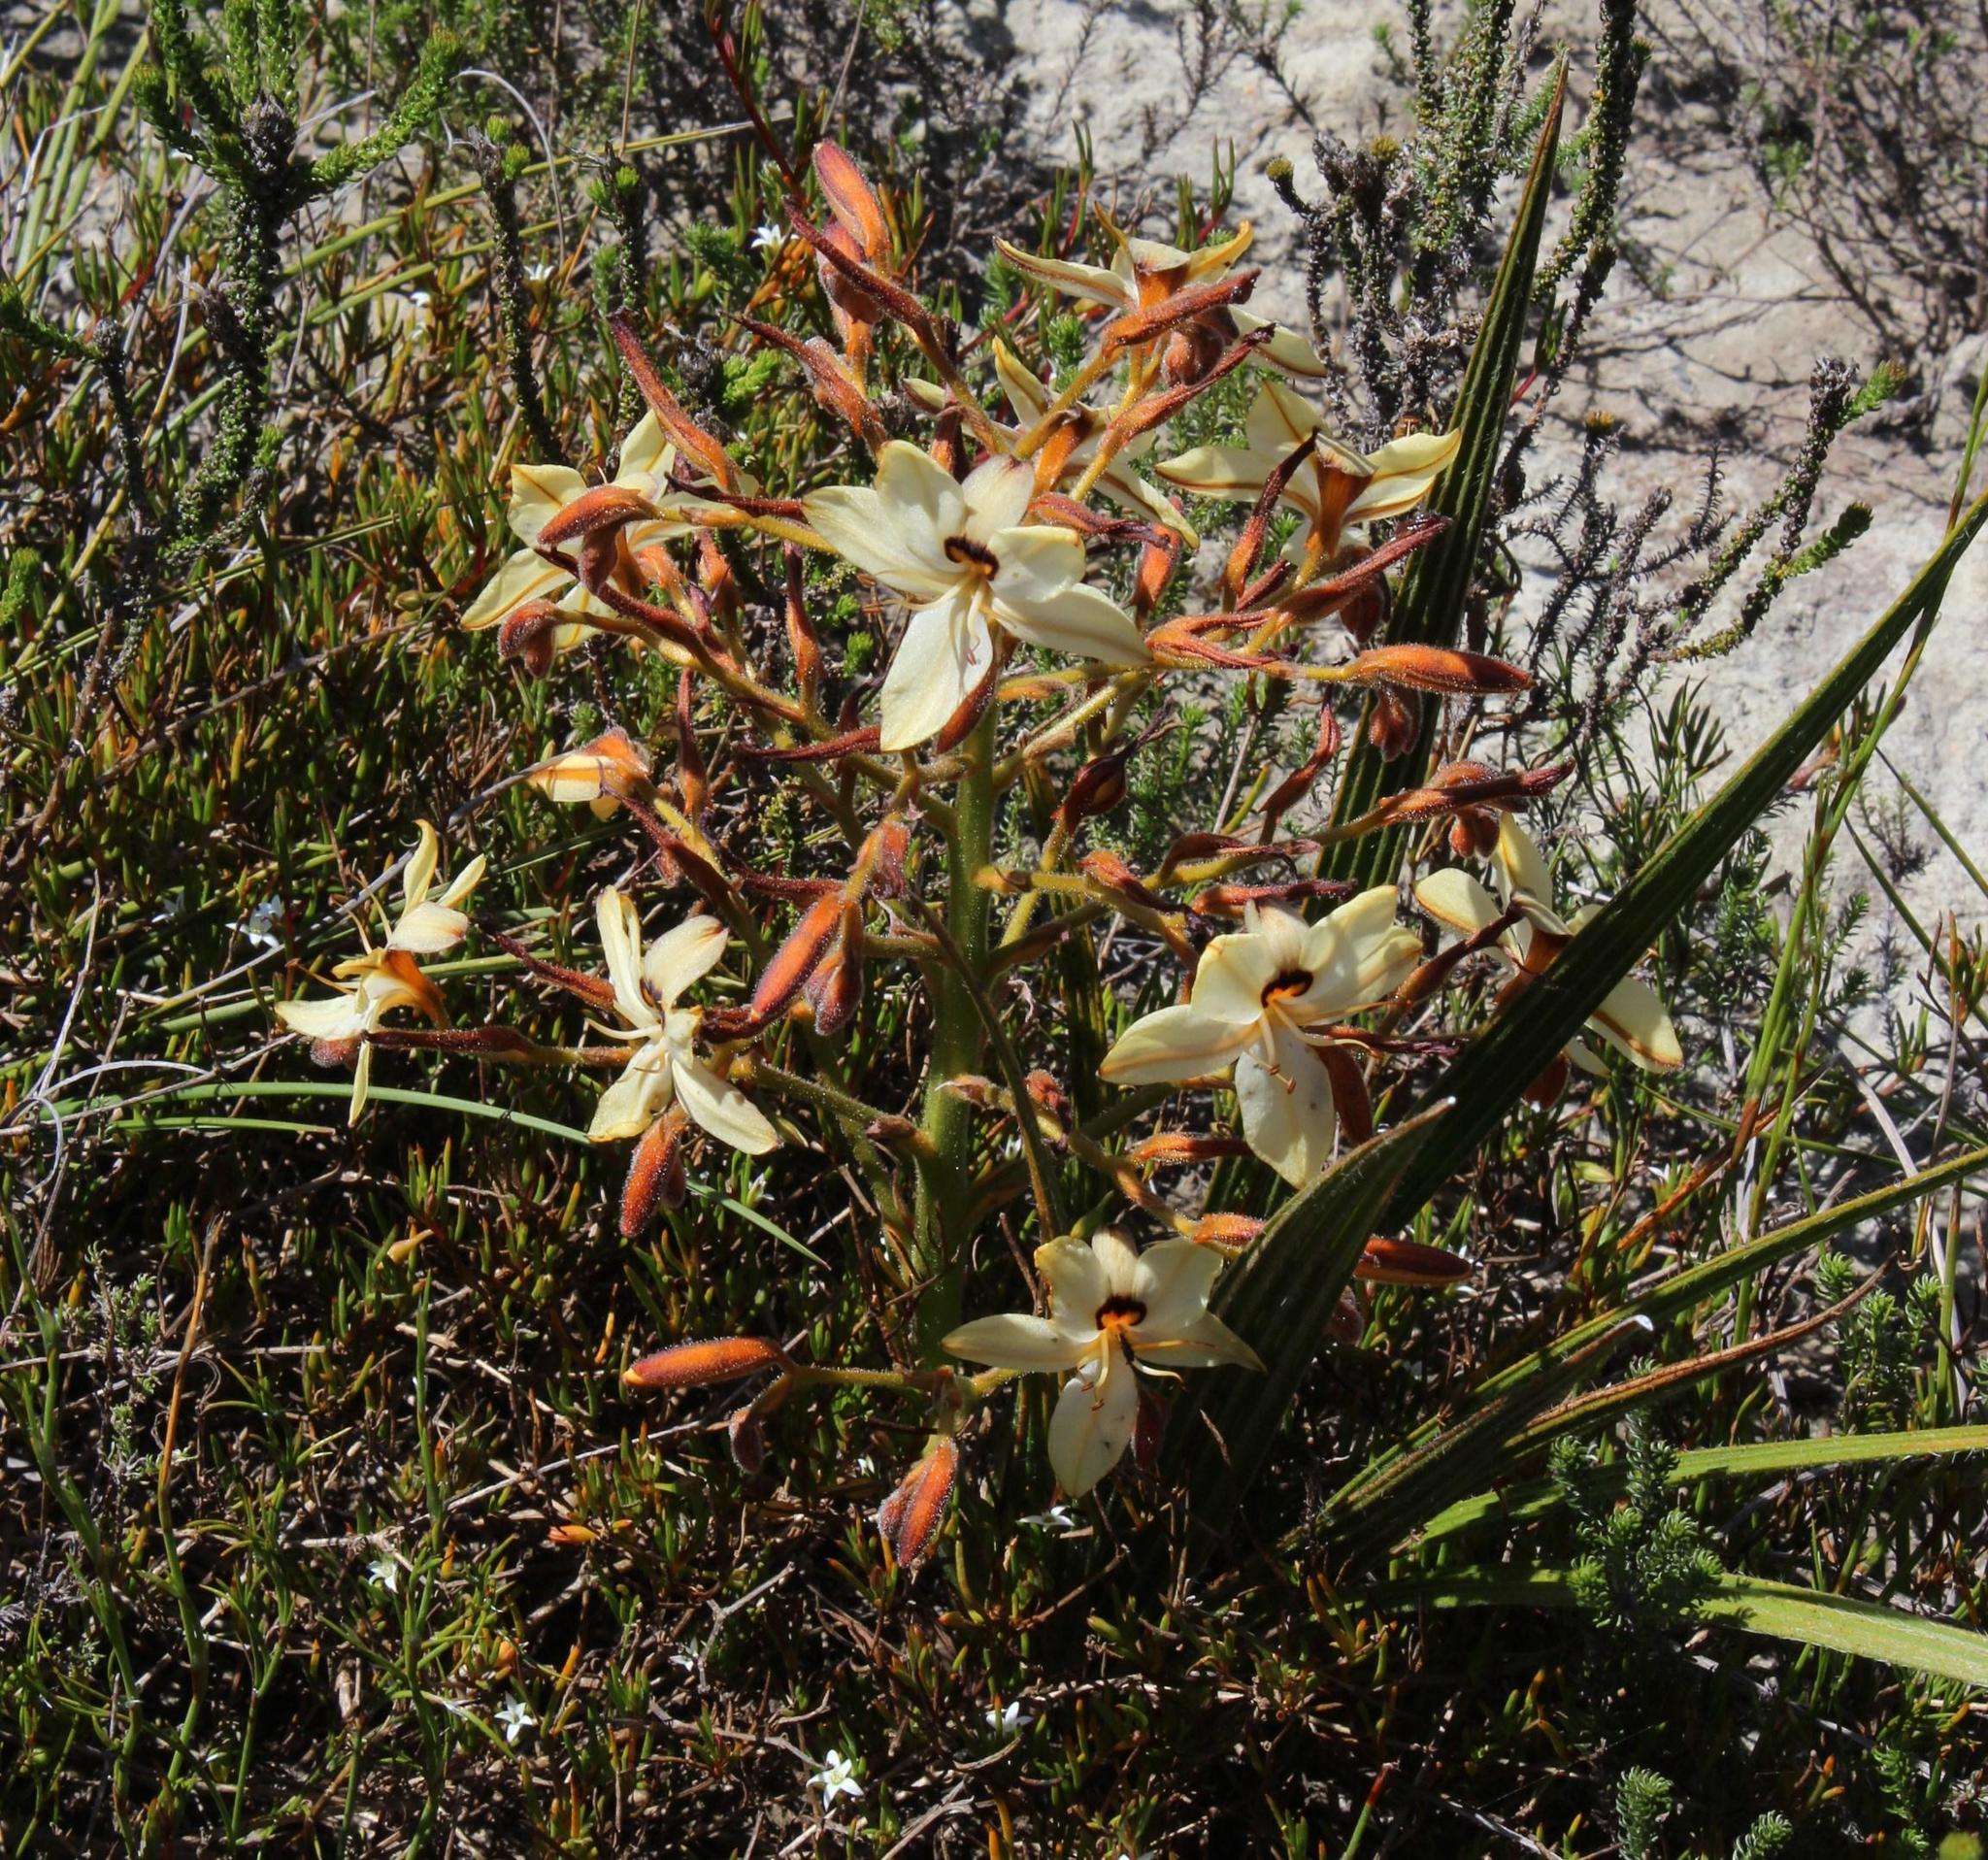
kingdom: Plantae
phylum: Tracheophyta
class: Liliopsida
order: Commelinales
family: Haemodoraceae
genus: Wachendorfia
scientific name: Wachendorfia paniculata
